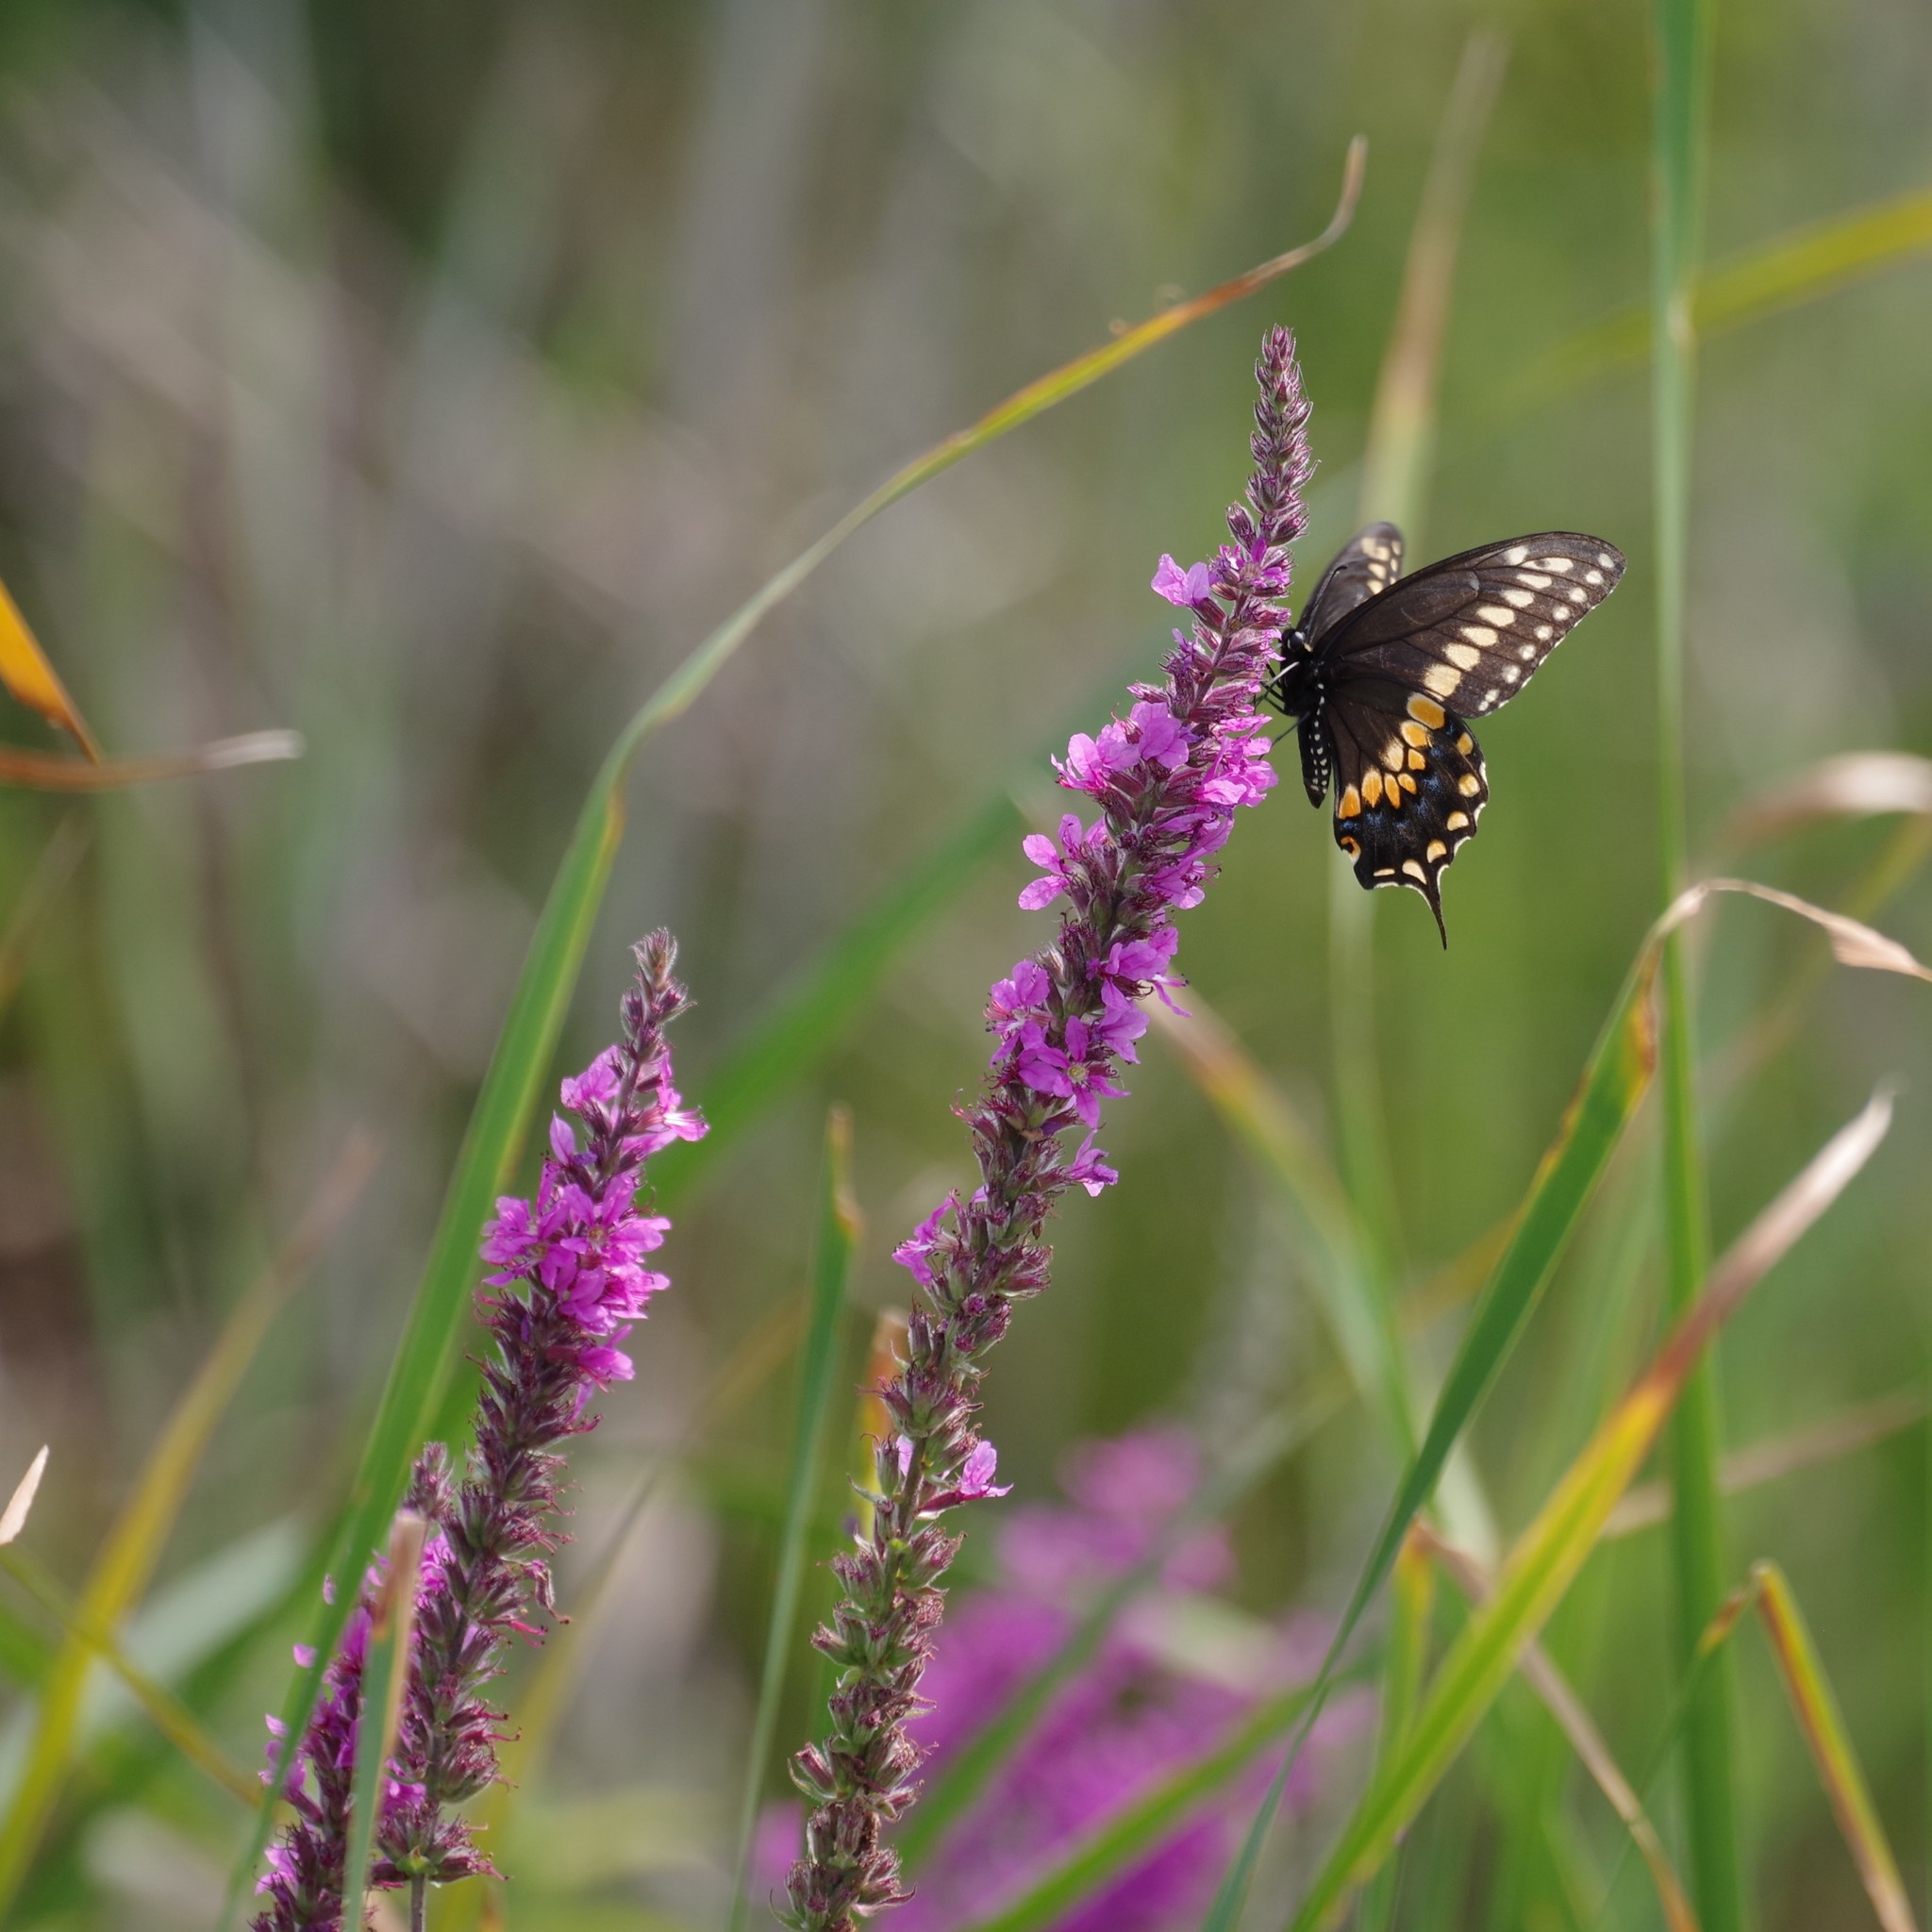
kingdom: Animalia
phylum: Arthropoda
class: Insecta
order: Lepidoptera
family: Papilionidae
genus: Papilio
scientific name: Papilio polyxenes
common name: Black swallowtail
